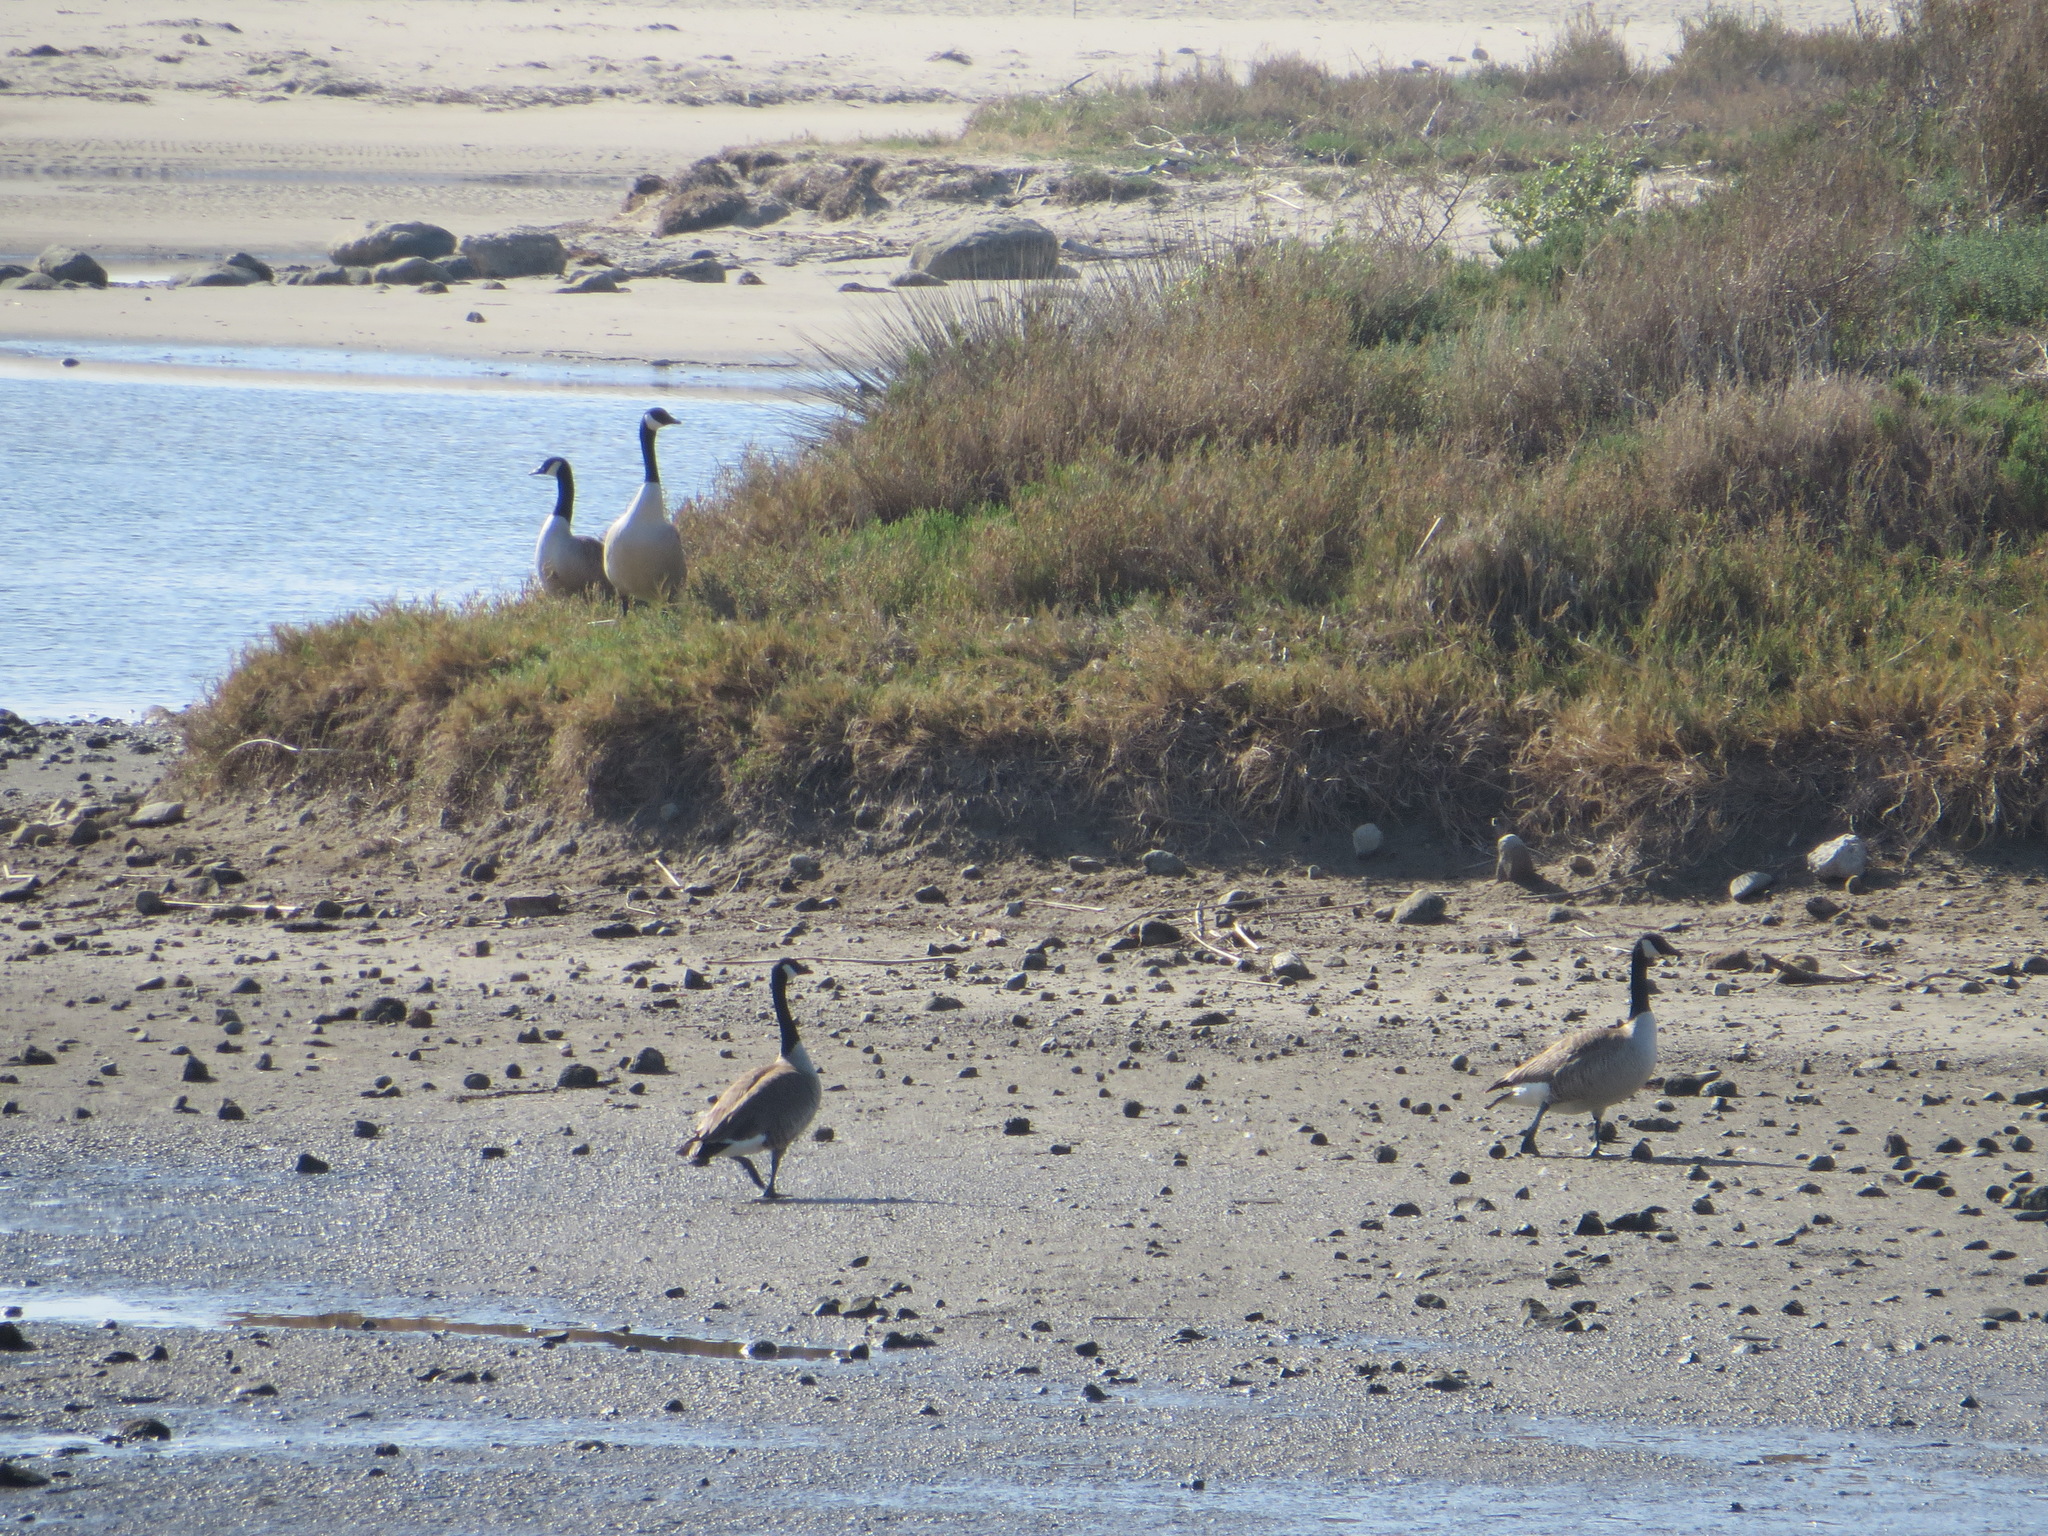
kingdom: Animalia
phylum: Chordata
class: Aves
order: Anseriformes
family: Anatidae
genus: Branta
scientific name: Branta canadensis
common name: Canada goose
